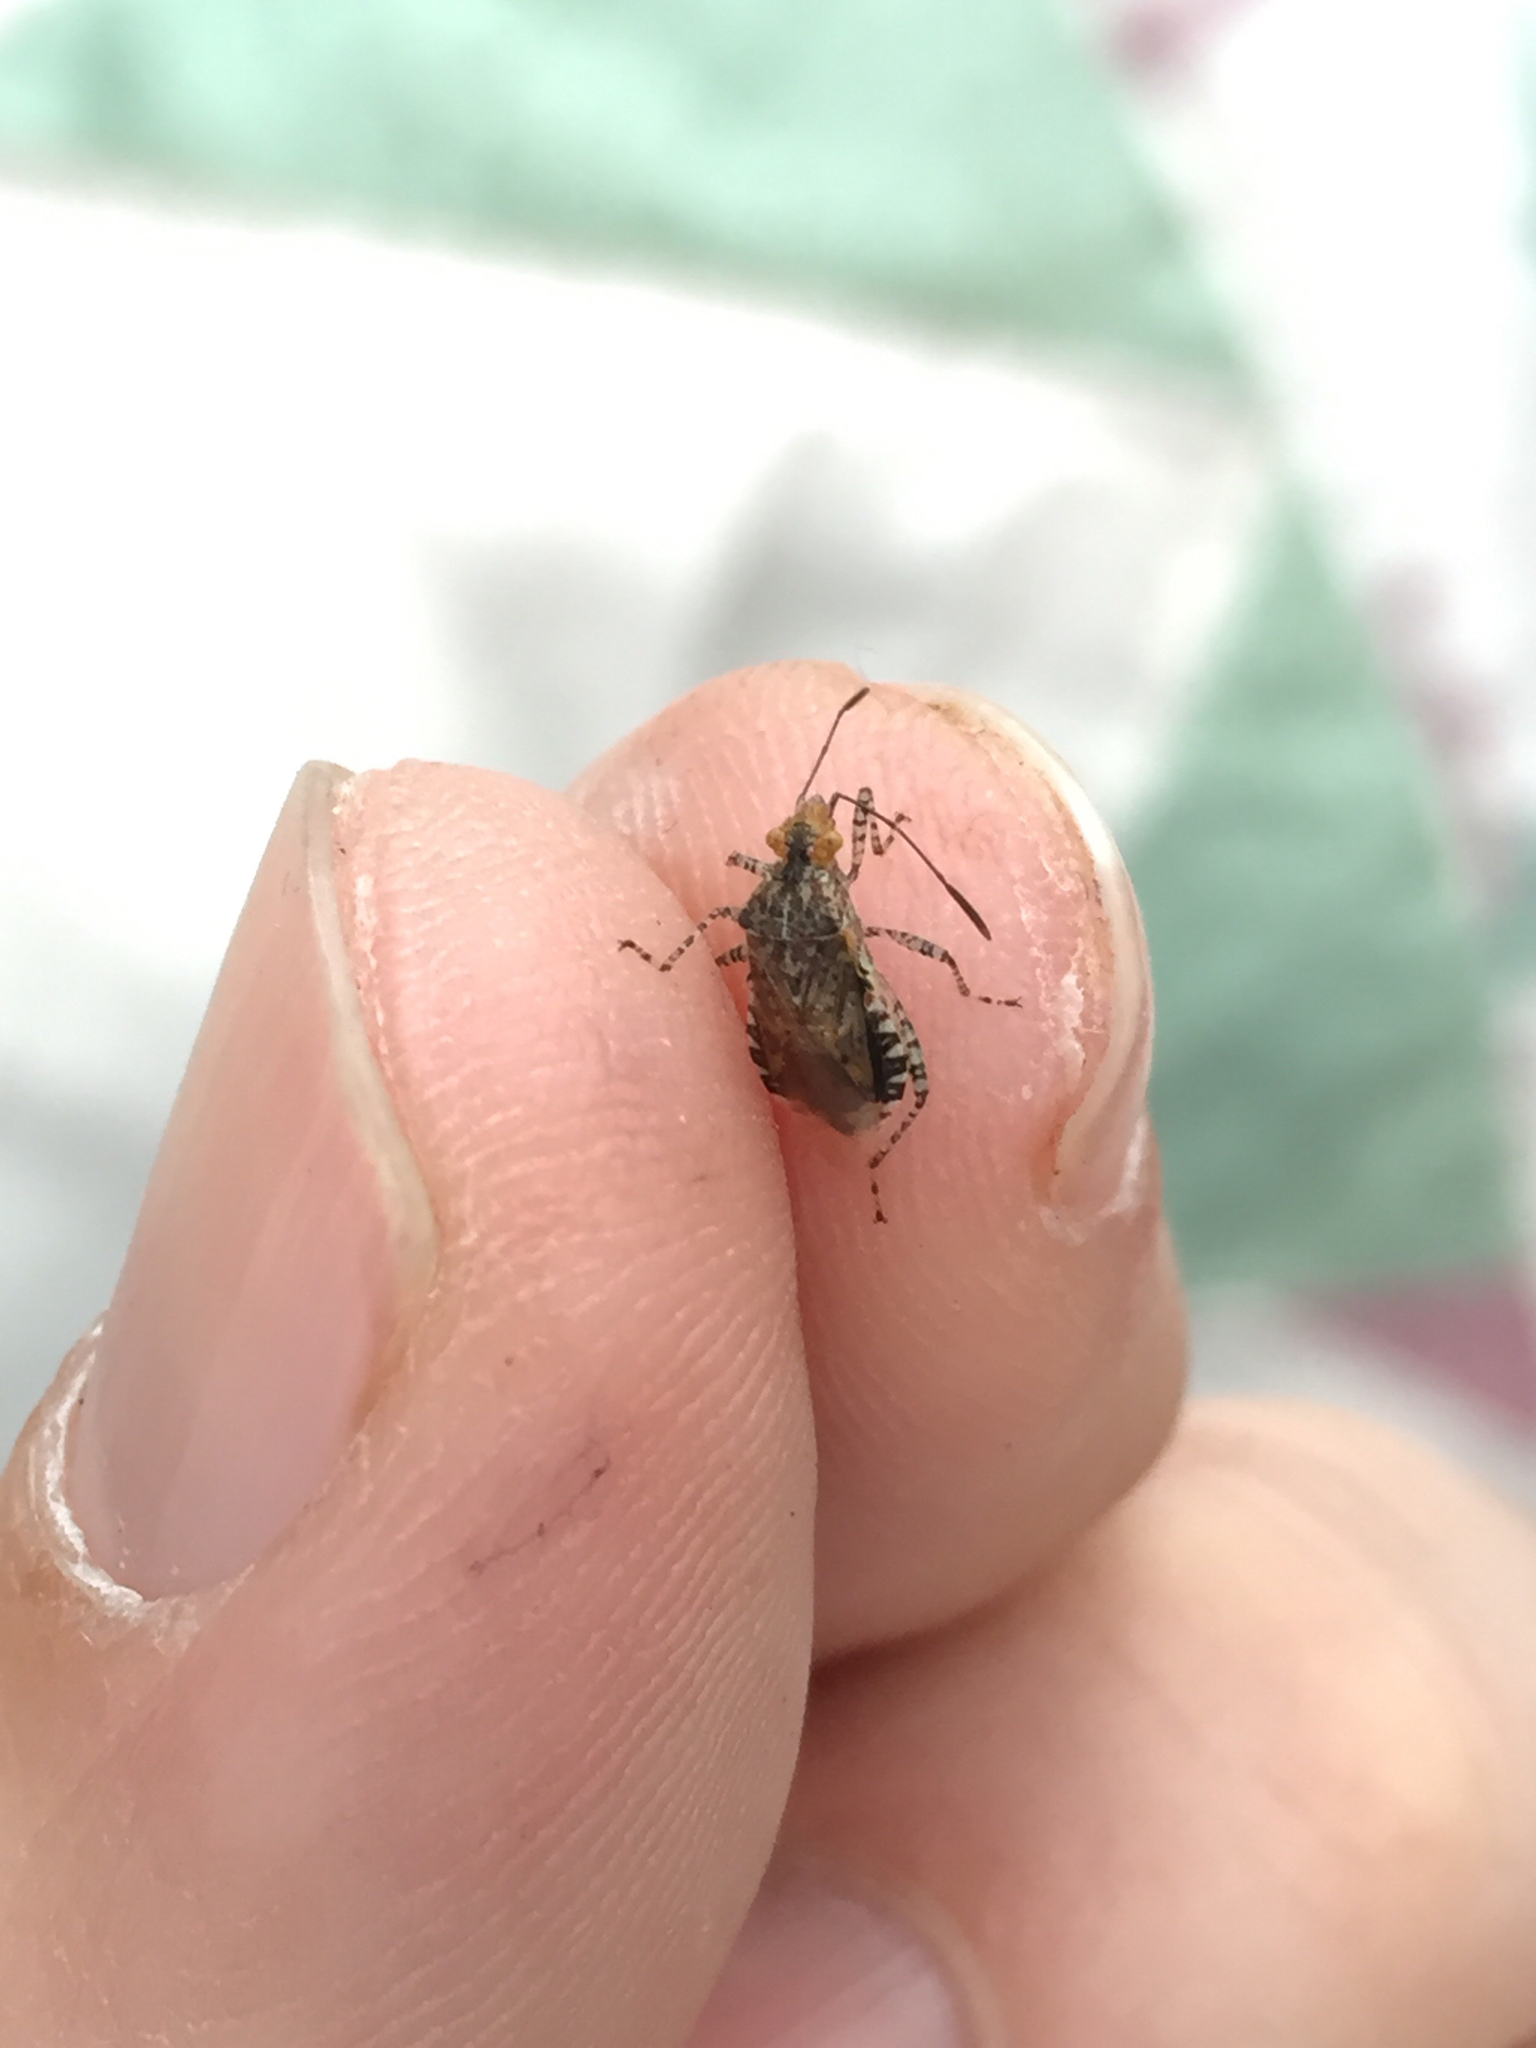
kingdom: Animalia
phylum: Arthropoda
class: Insecta
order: Hemiptera
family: Rhopalidae
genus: Niesthrea
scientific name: Niesthrea louisianica
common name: Scentless plant bug
